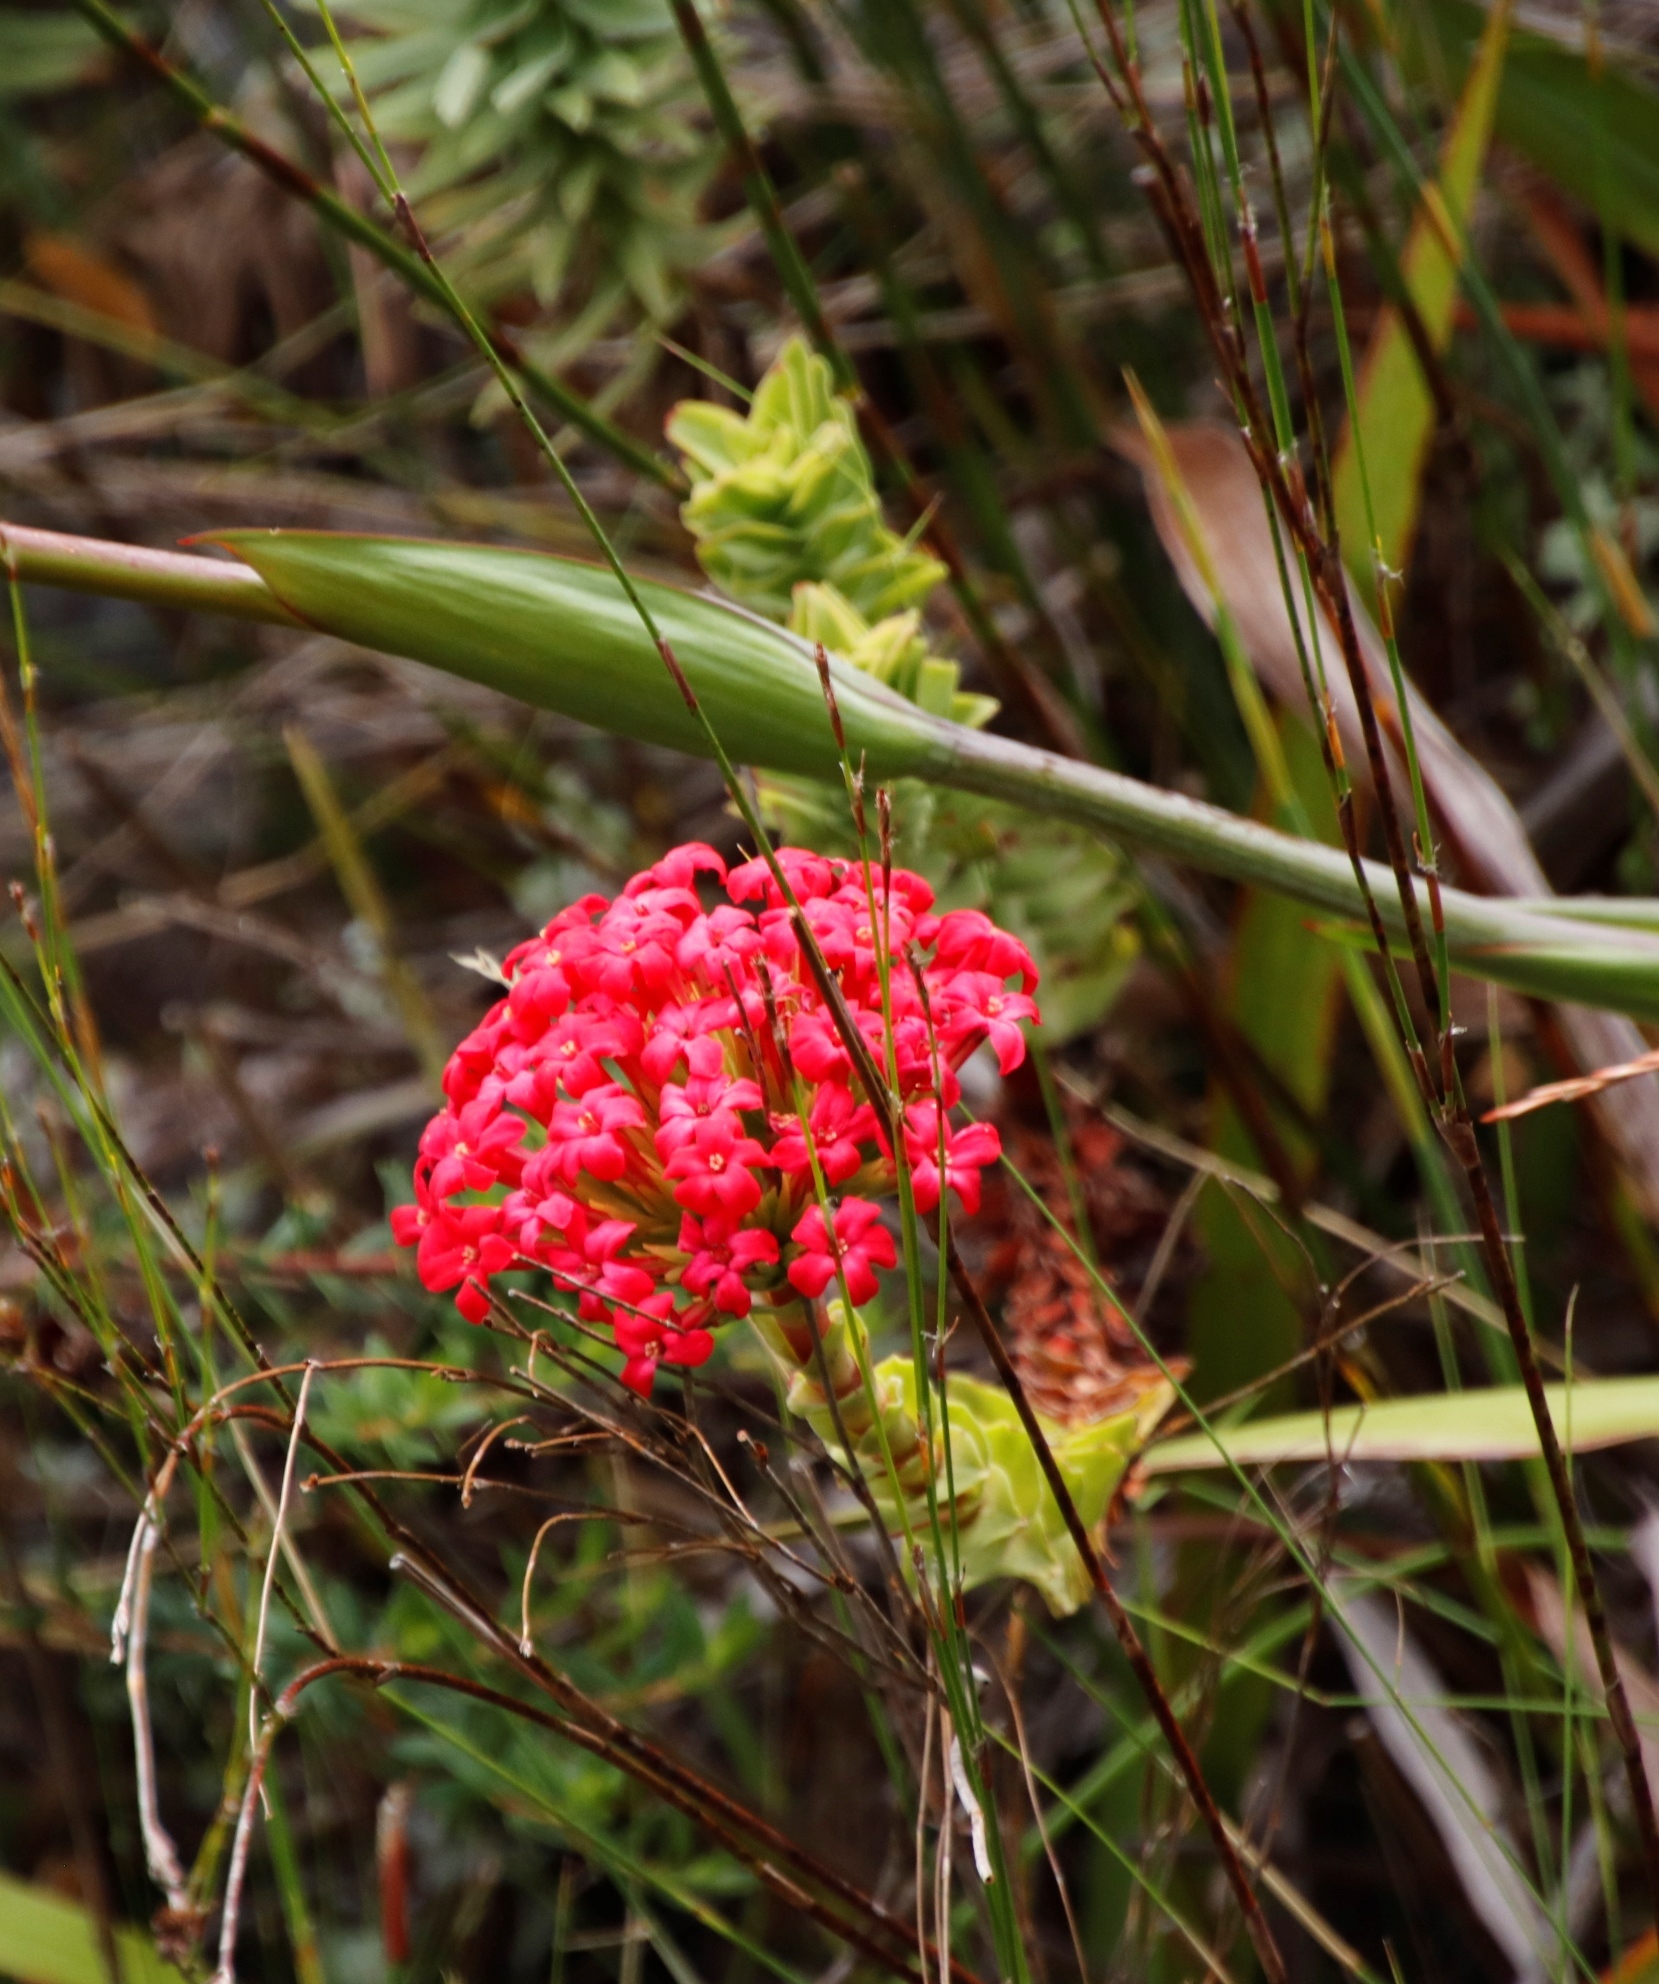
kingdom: Plantae
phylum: Tracheophyta
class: Magnoliopsida
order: Saxifragales
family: Crassulaceae
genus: Crassula
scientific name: Crassula coccinea
